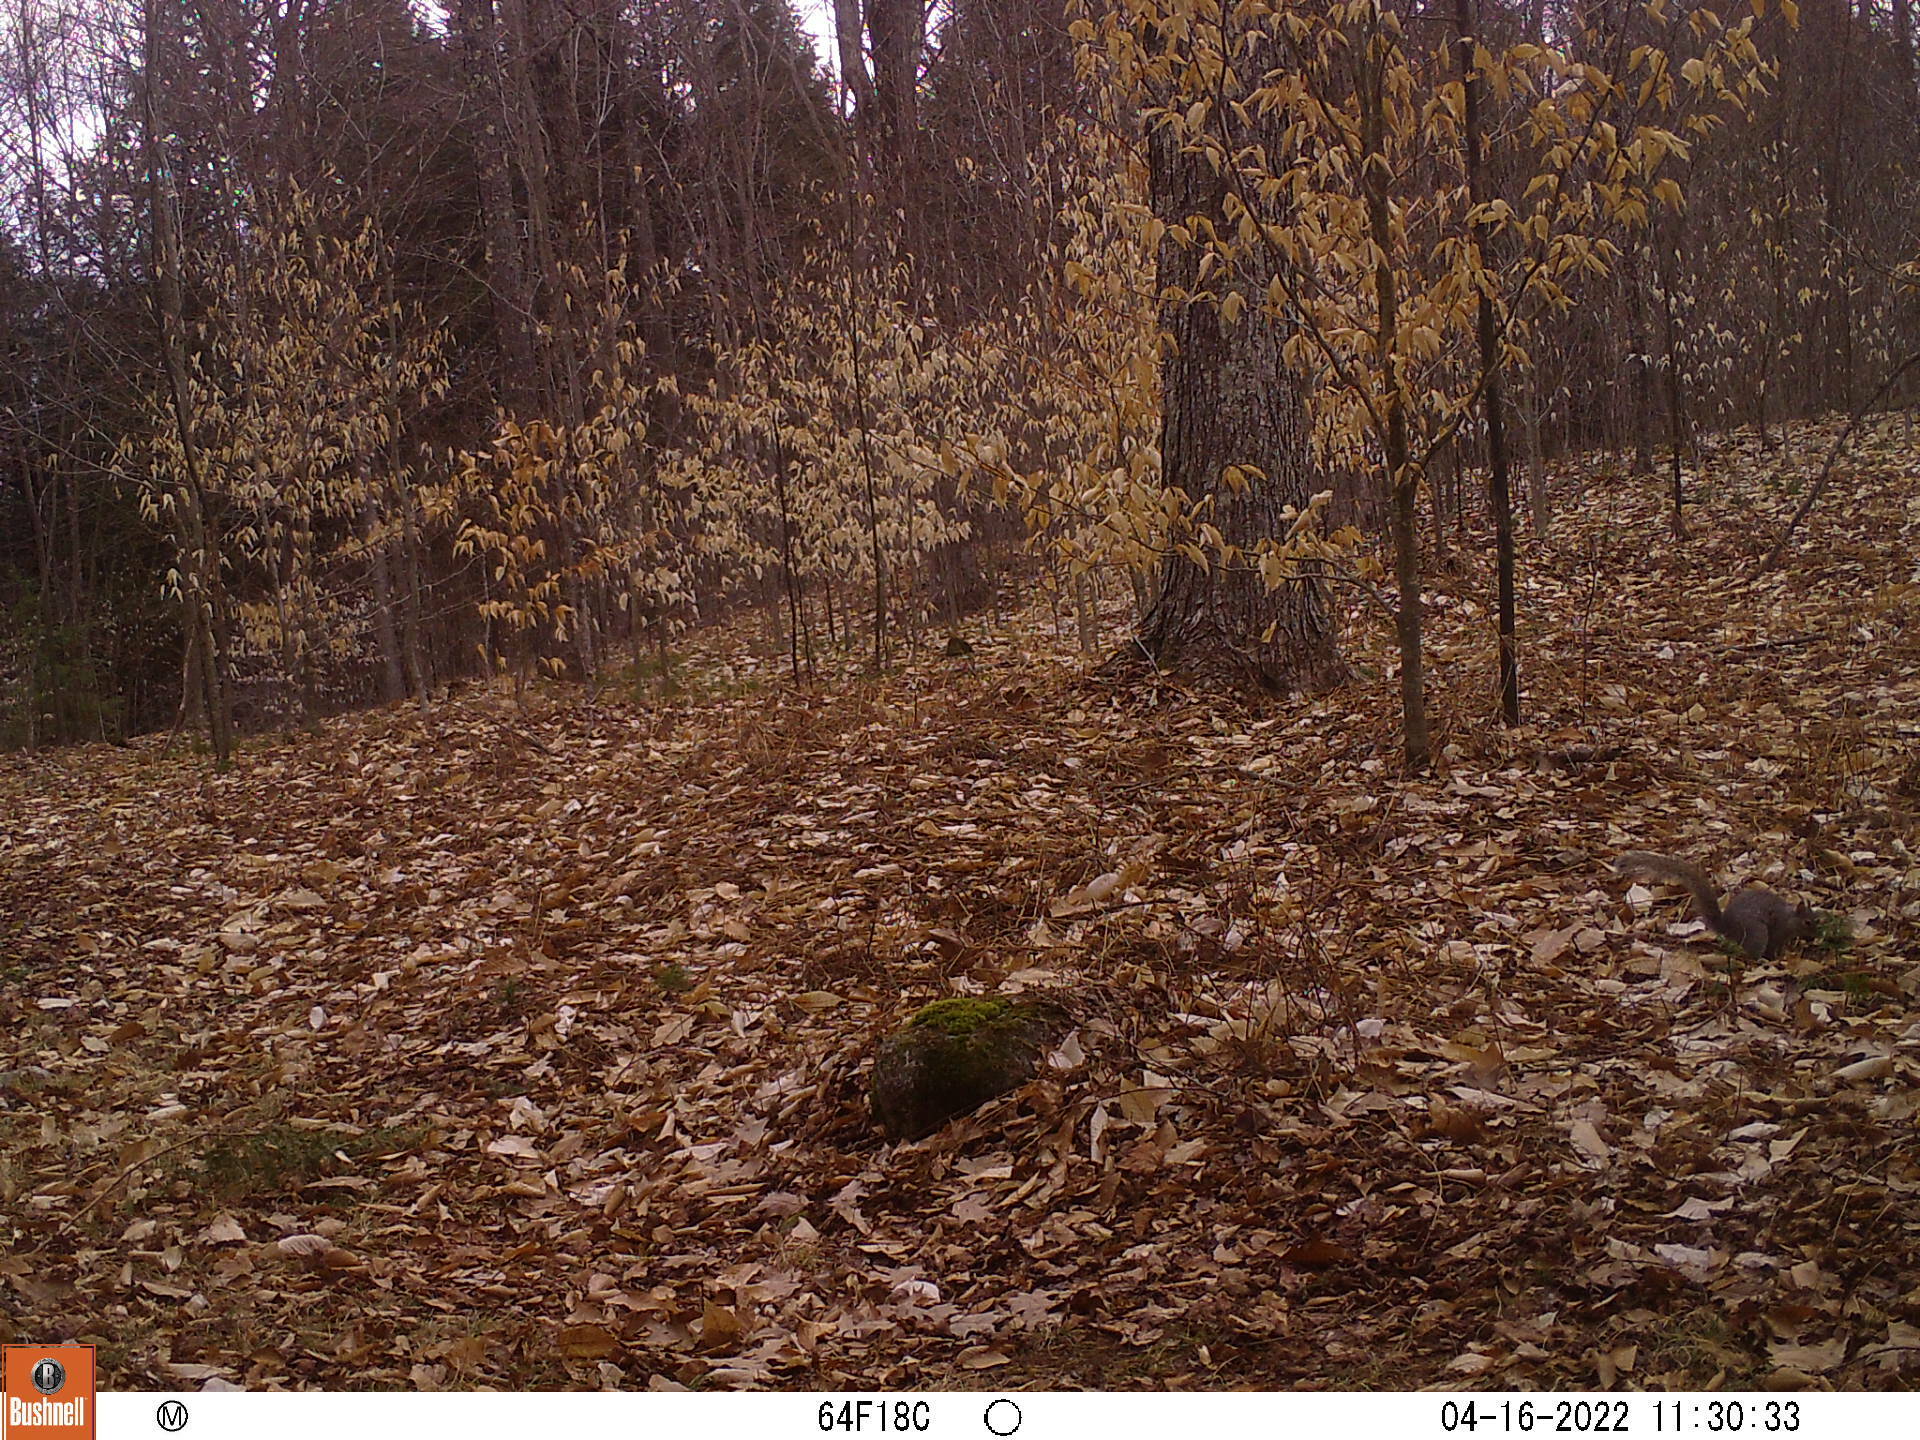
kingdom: Animalia
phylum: Chordata
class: Mammalia
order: Rodentia
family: Sciuridae
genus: Sciurus
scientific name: Sciurus carolinensis
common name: Eastern gray squirrel
